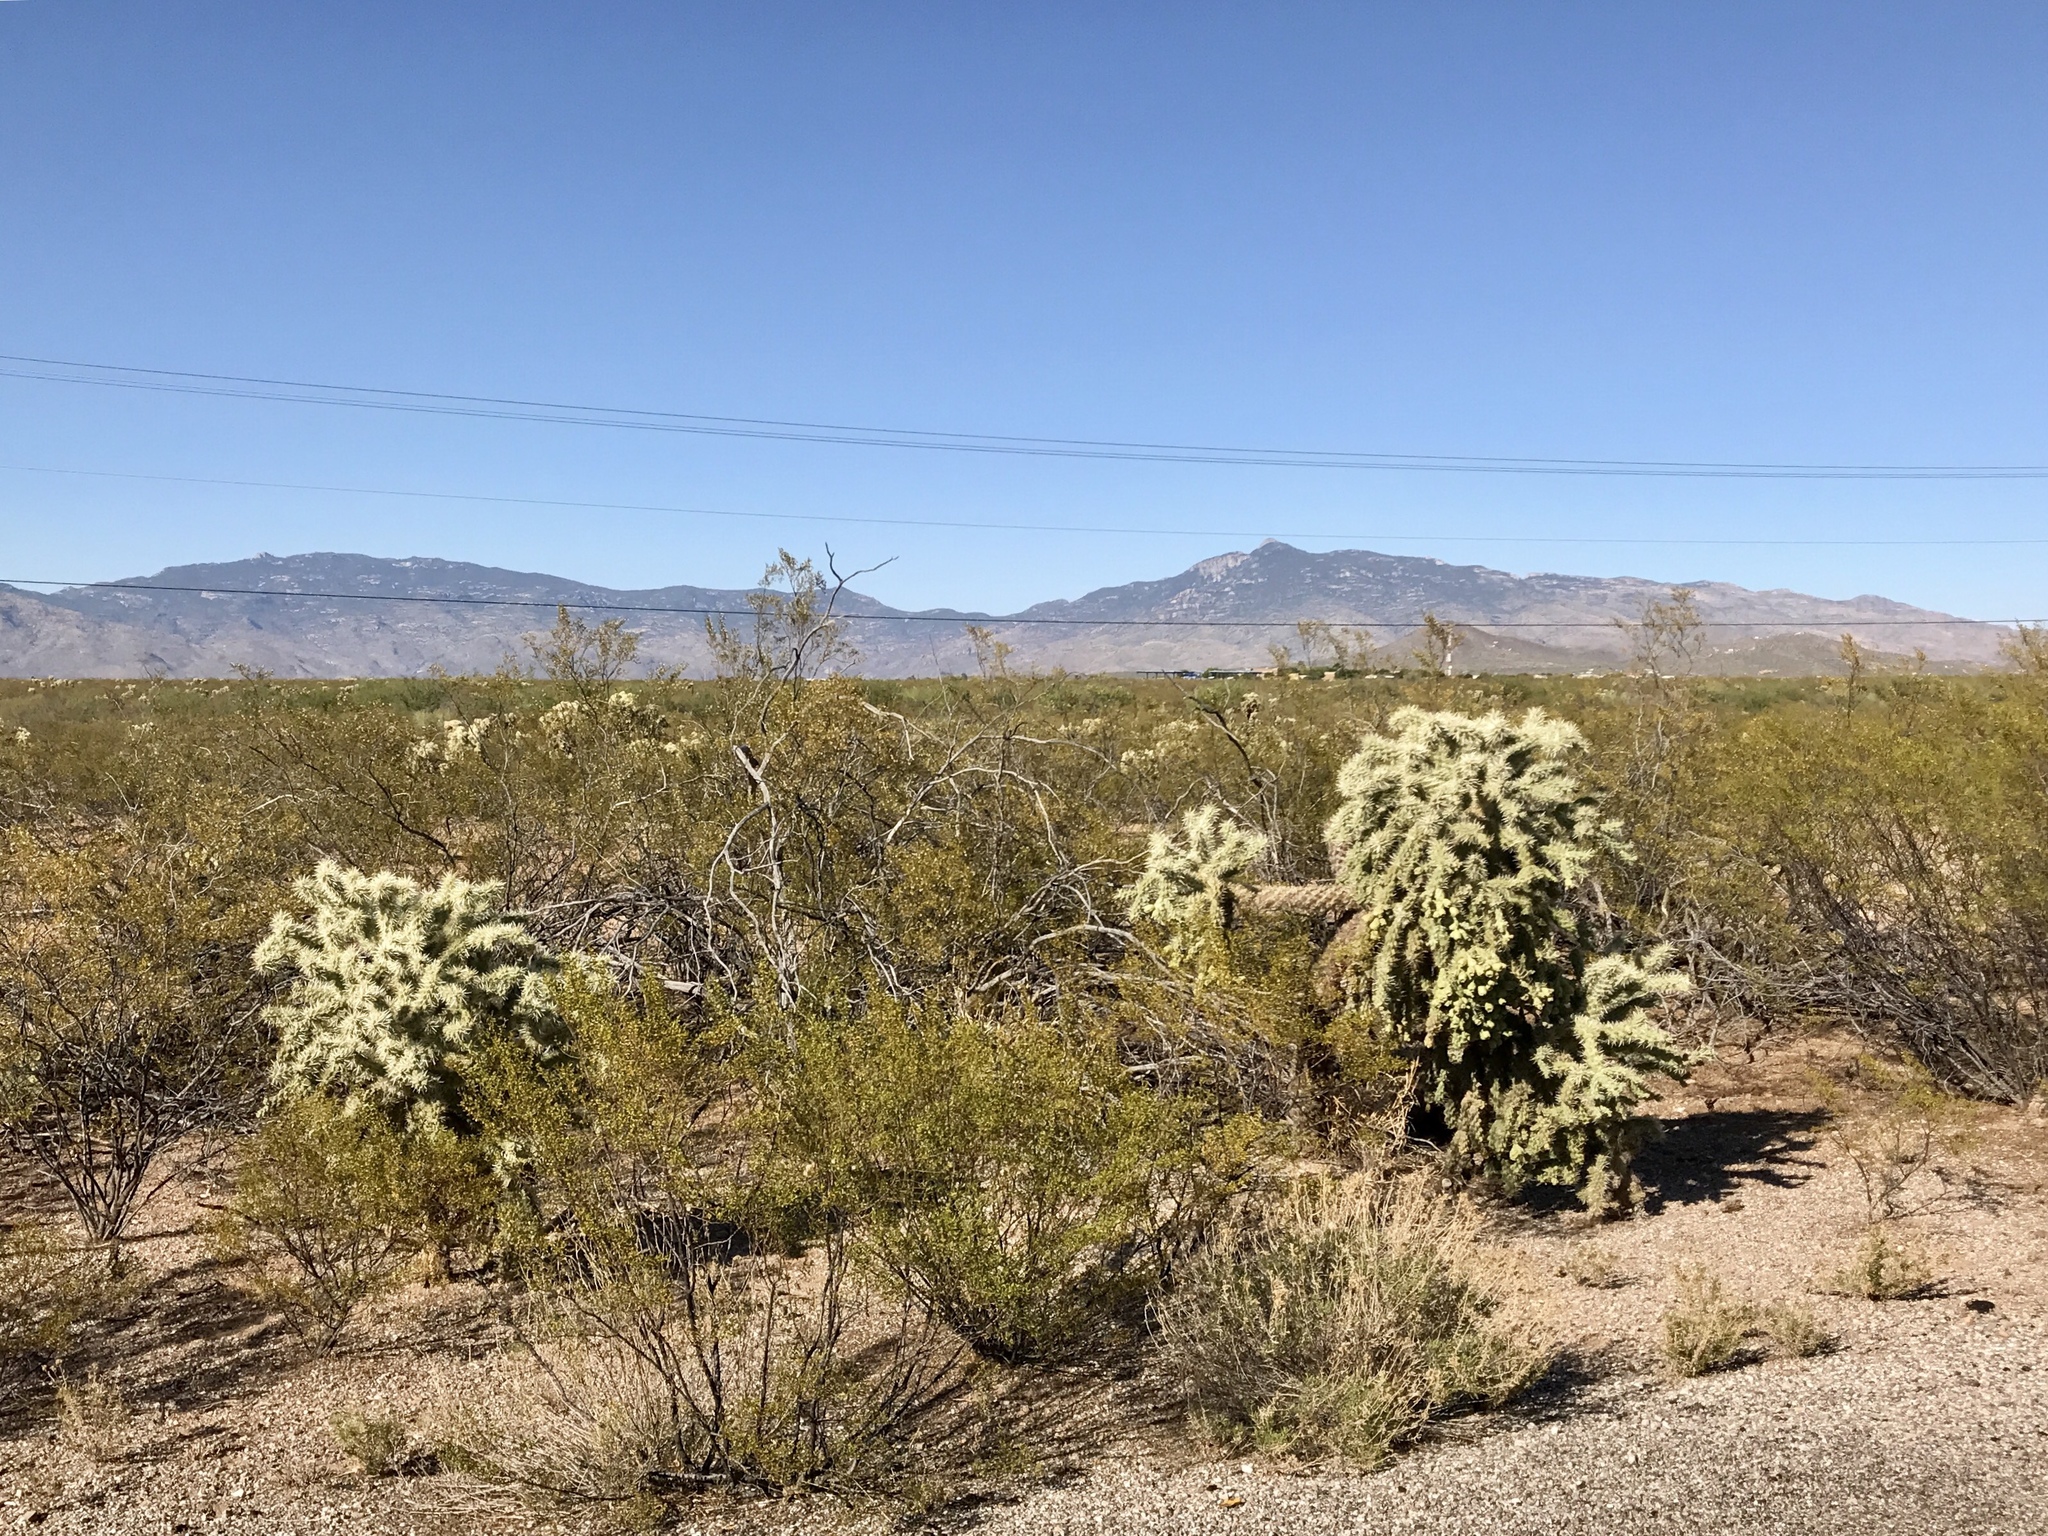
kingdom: Plantae
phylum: Tracheophyta
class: Magnoliopsida
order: Caryophyllales
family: Cactaceae
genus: Cylindropuntia
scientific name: Cylindropuntia fulgida
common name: Jumping cholla
